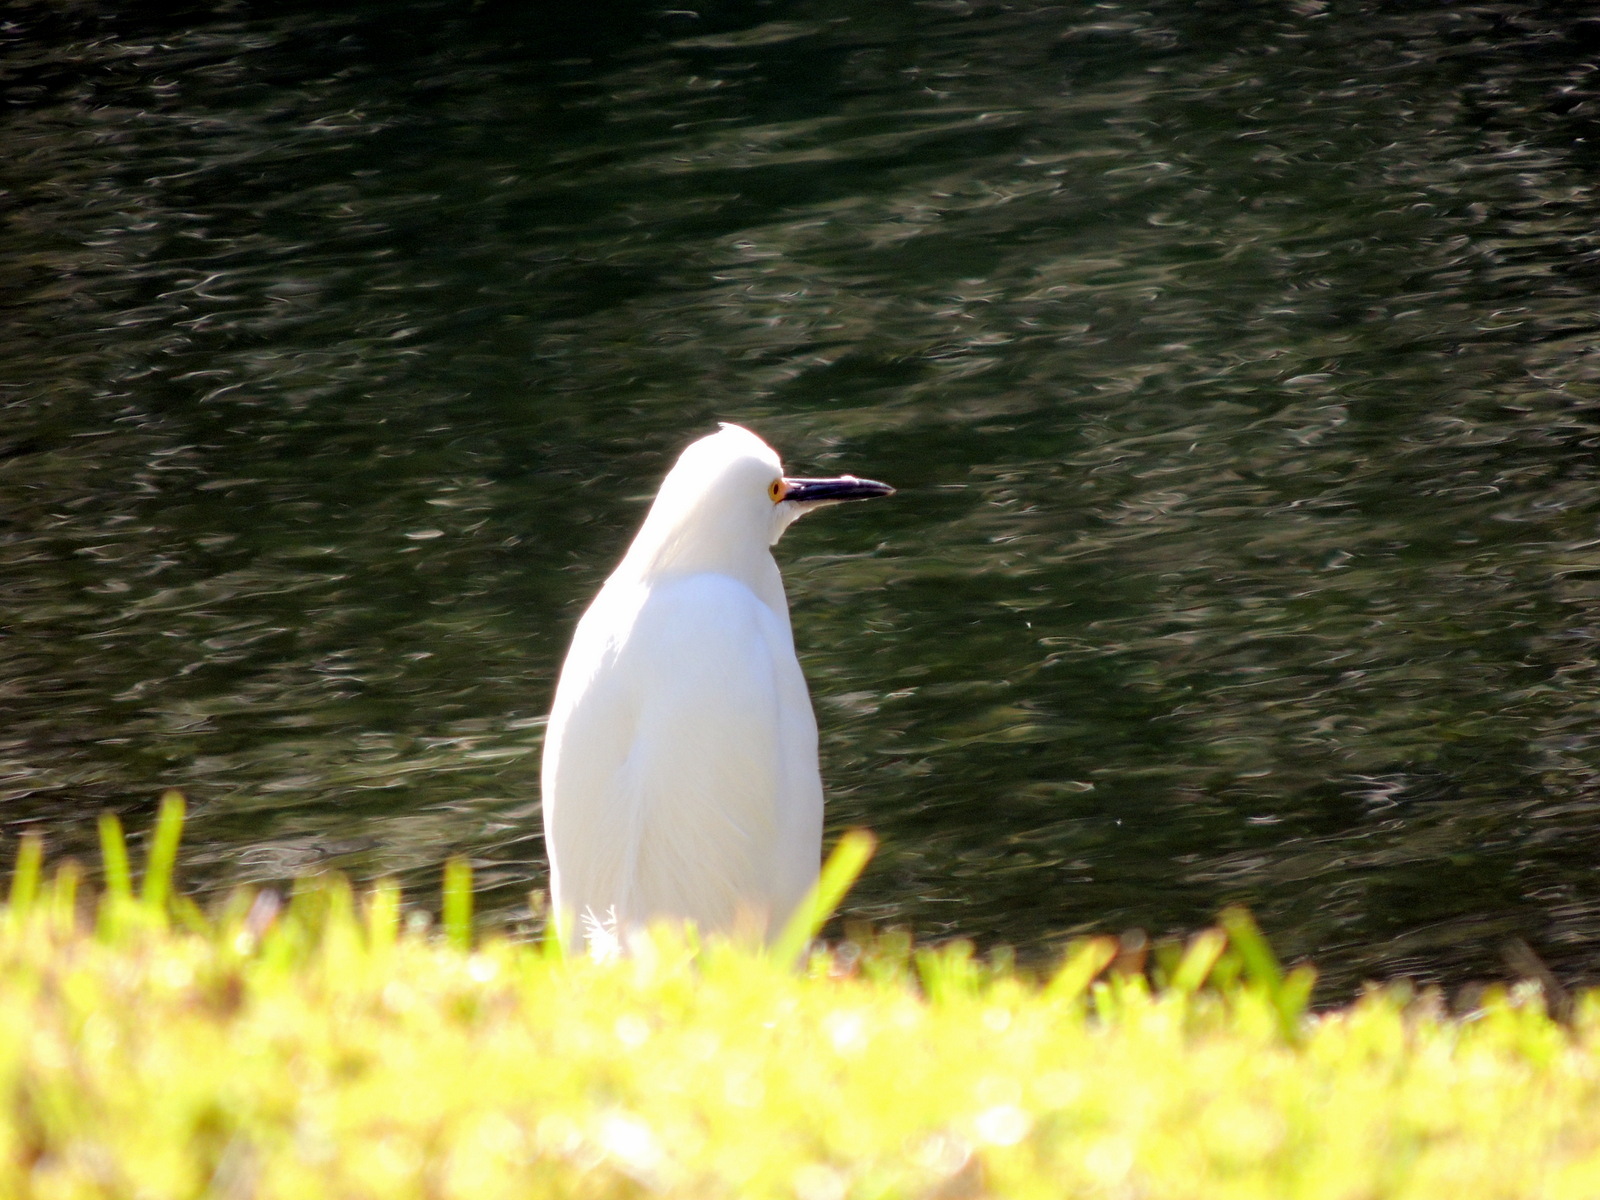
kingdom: Animalia
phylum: Chordata
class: Aves
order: Pelecaniformes
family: Ardeidae
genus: Egretta
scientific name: Egretta thula
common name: Snowy egret
